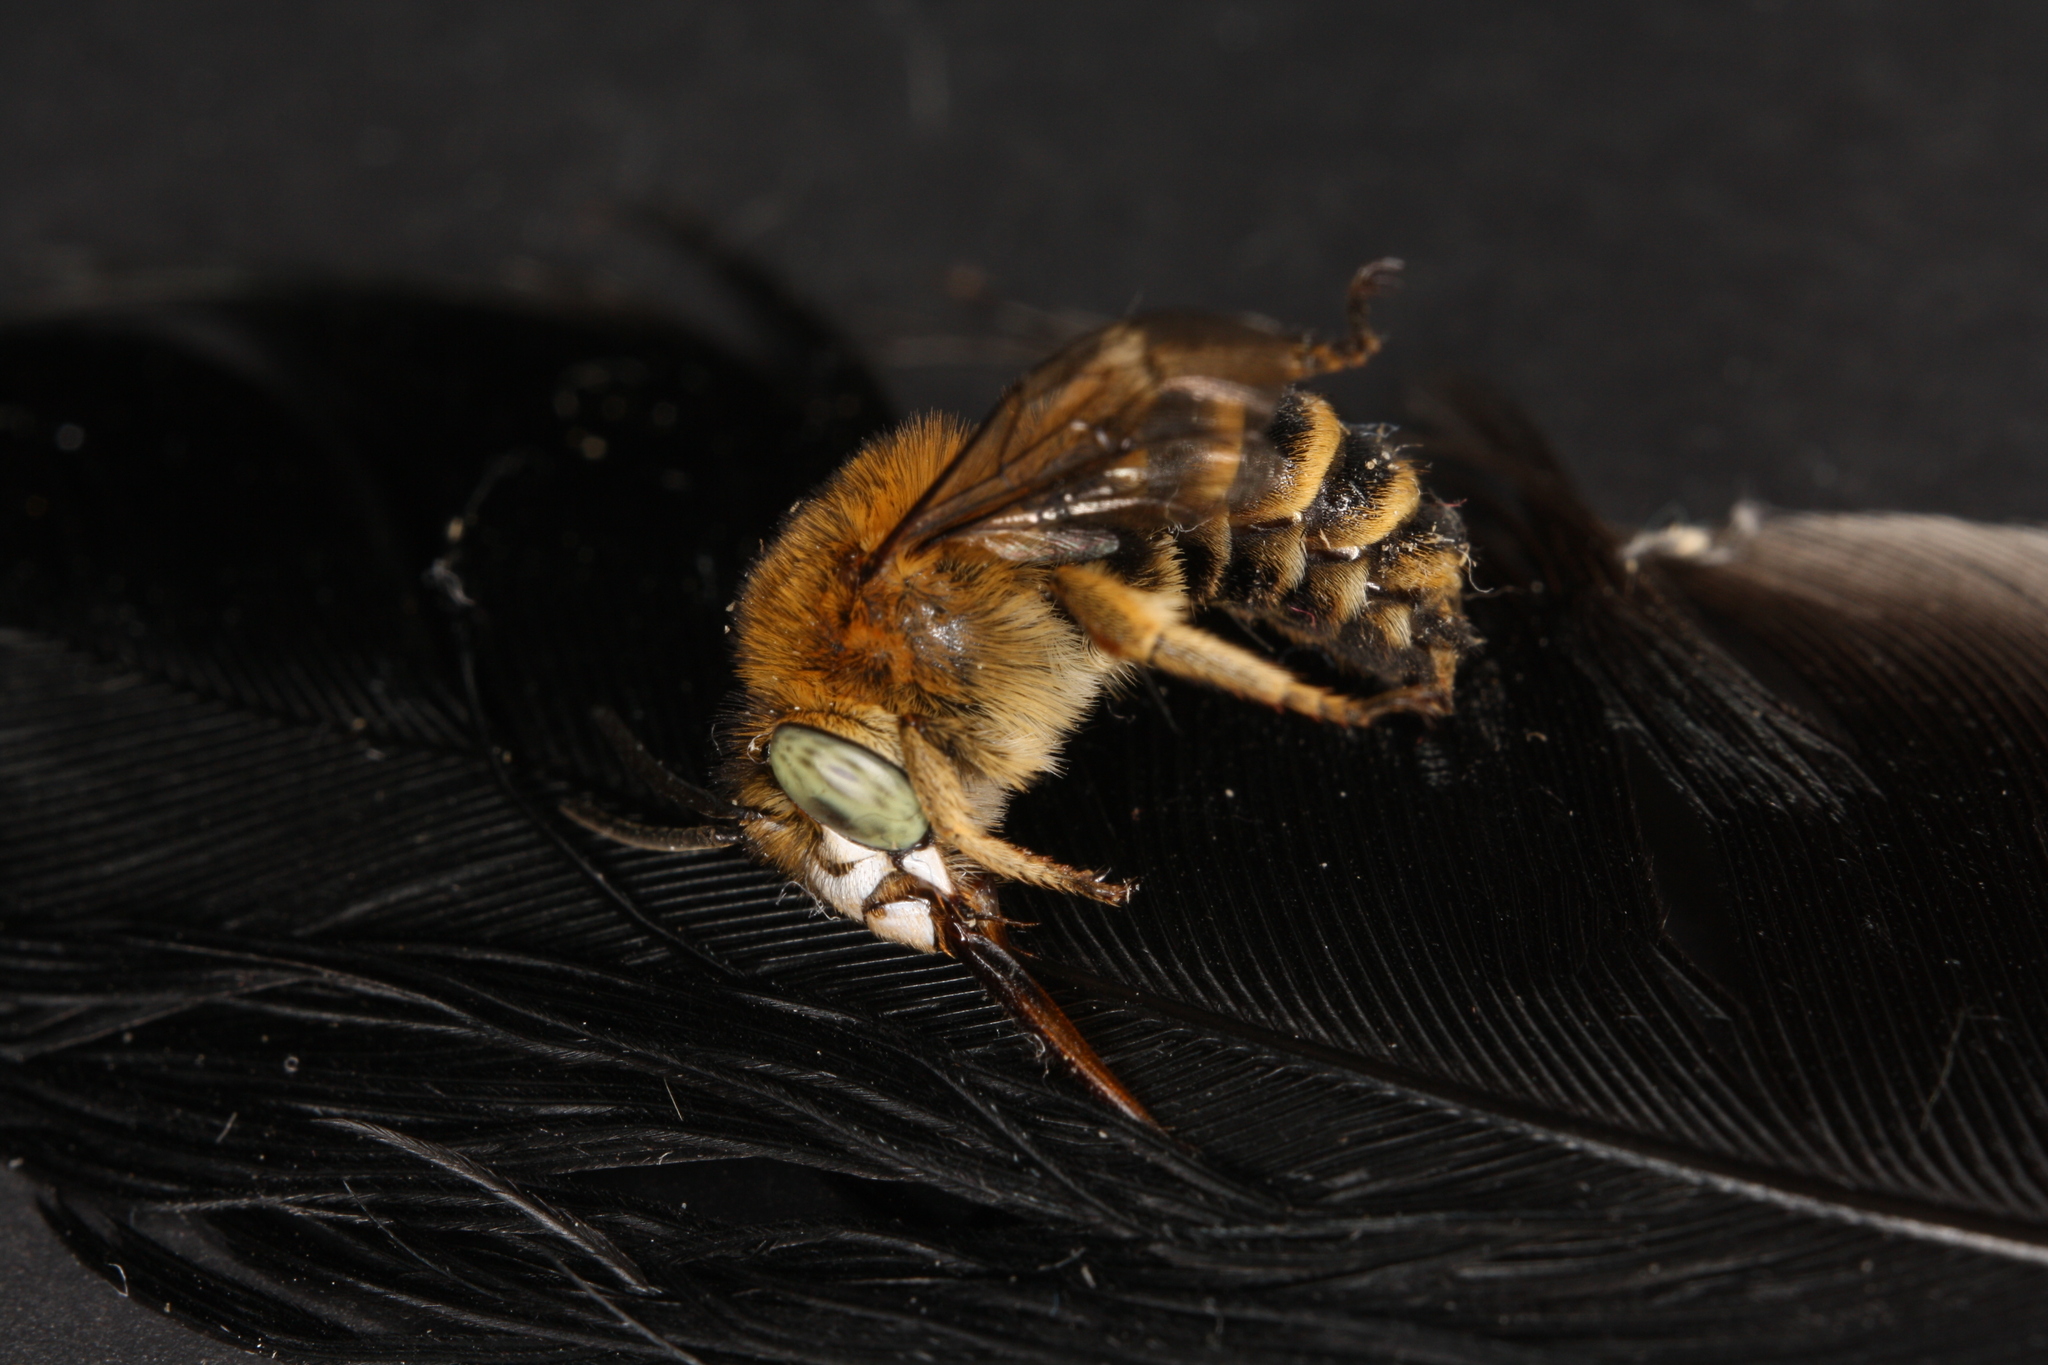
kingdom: Animalia
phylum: Arthropoda
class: Insecta
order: Hymenoptera
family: Apidae
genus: Amegilla
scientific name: Amegilla garrula
